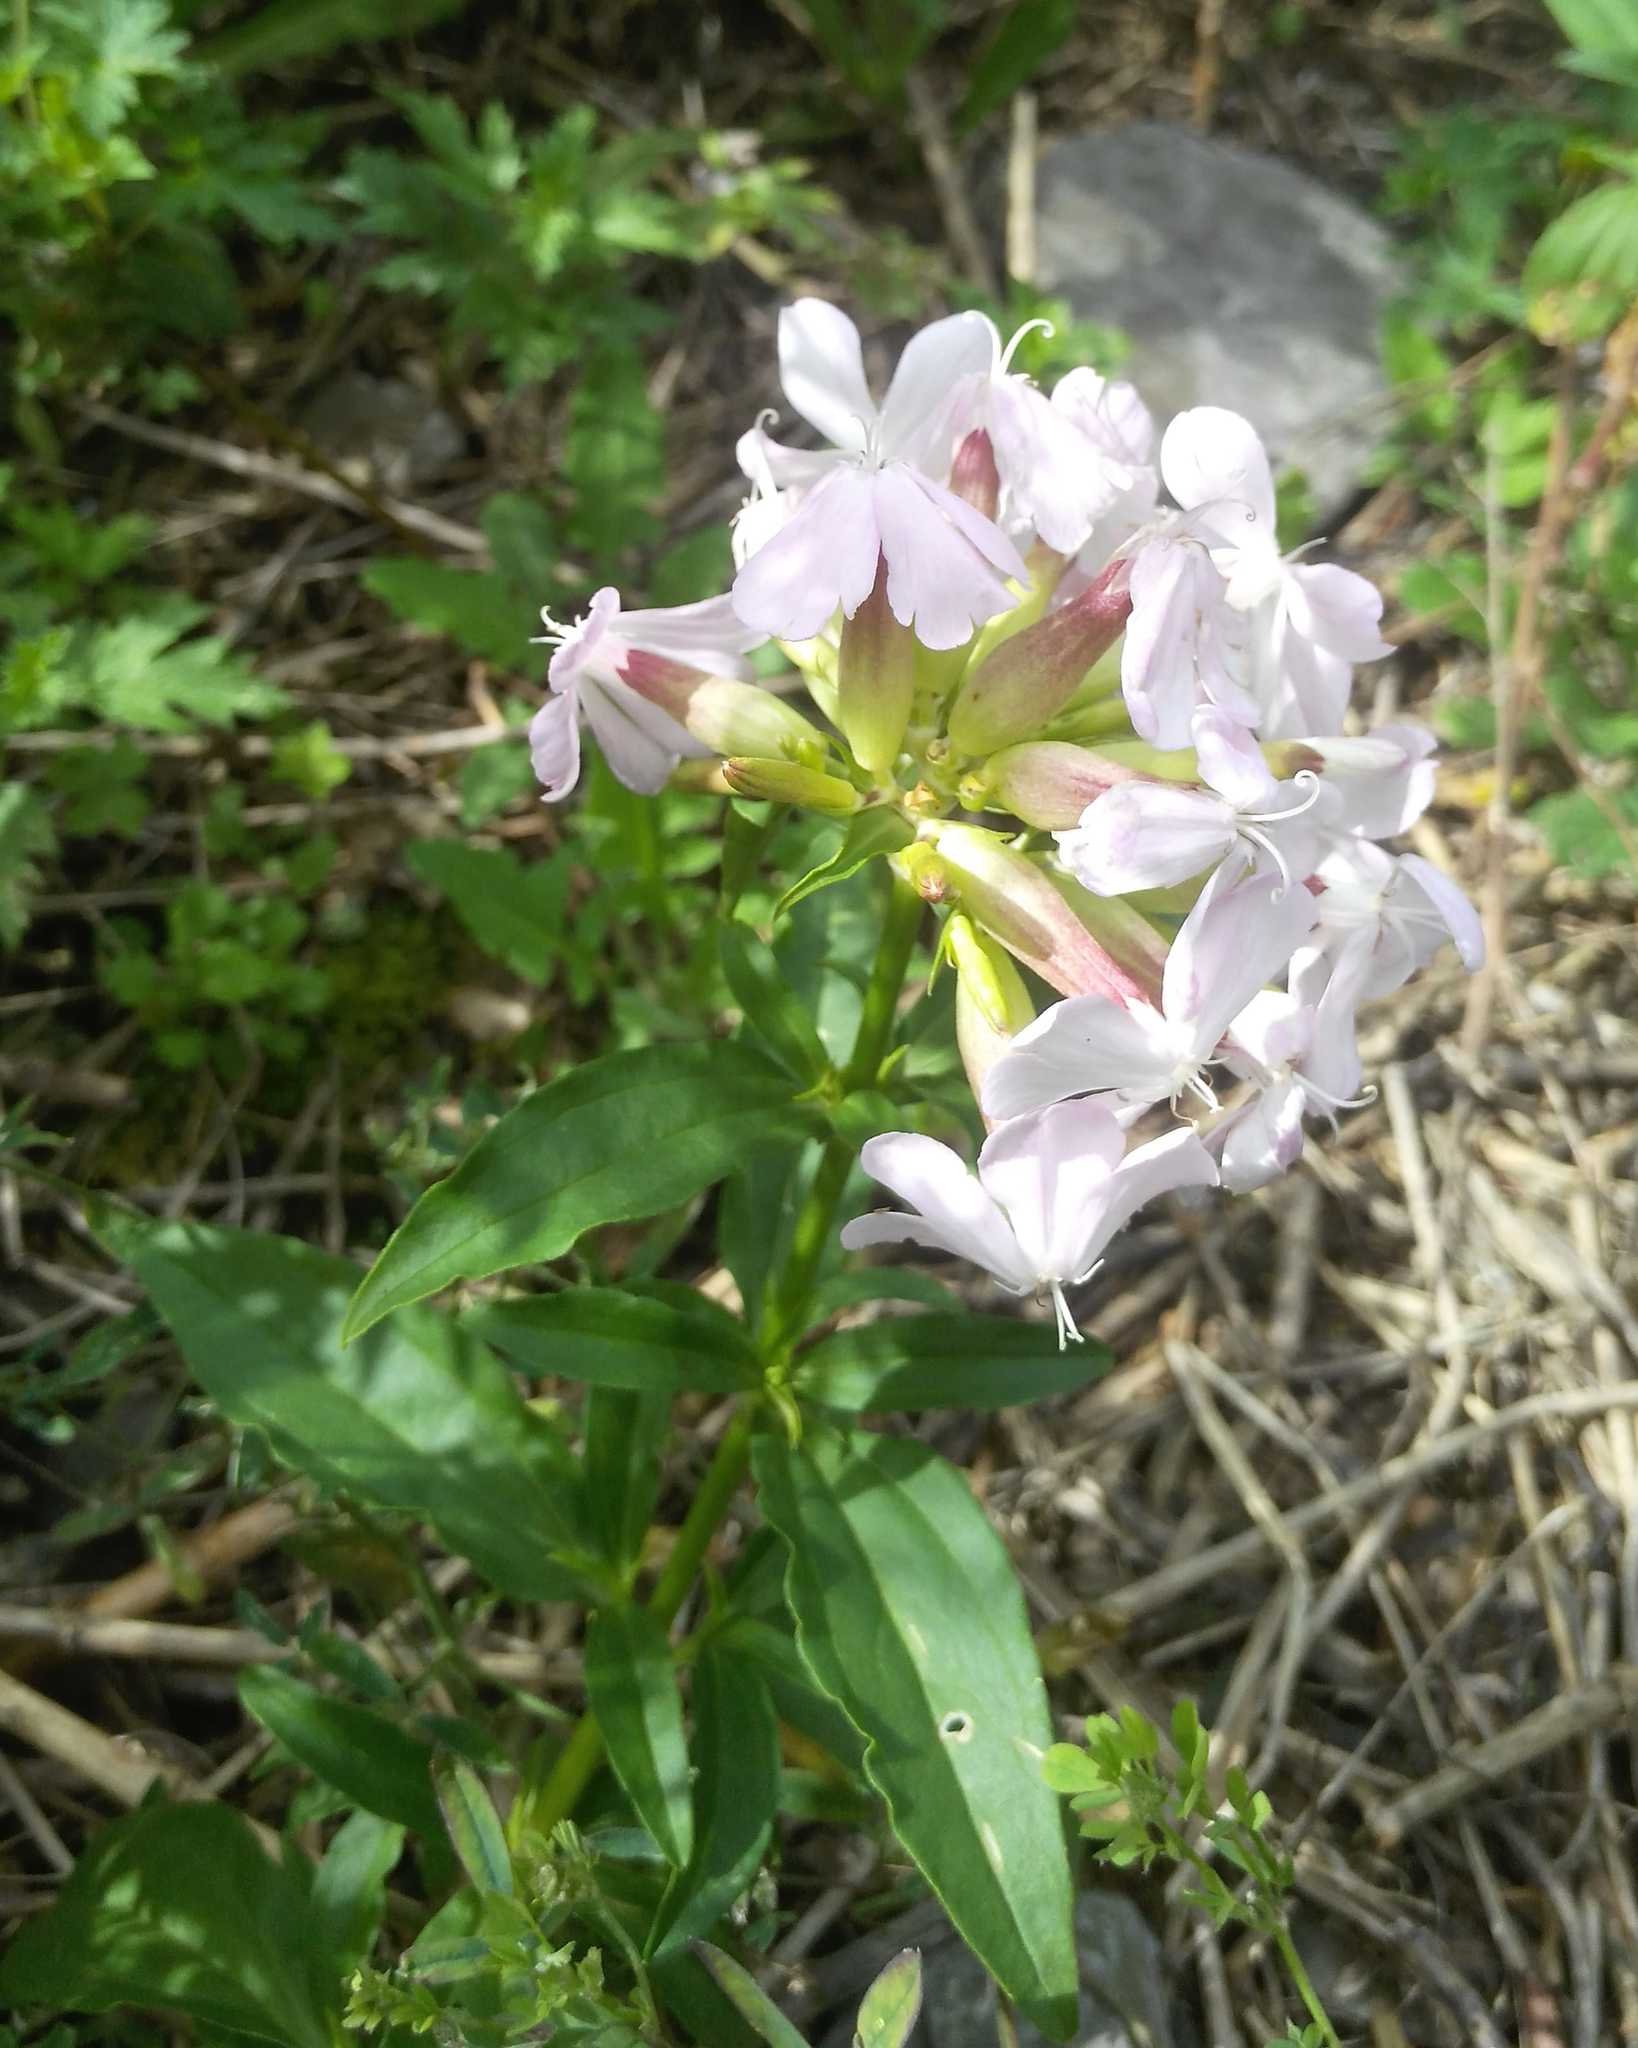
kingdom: Plantae
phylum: Tracheophyta
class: Magnoliopsida
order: Caryophyllales
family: Caryophyllaceae
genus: Saponaria
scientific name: Saponaria officinalis
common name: Soapwort
